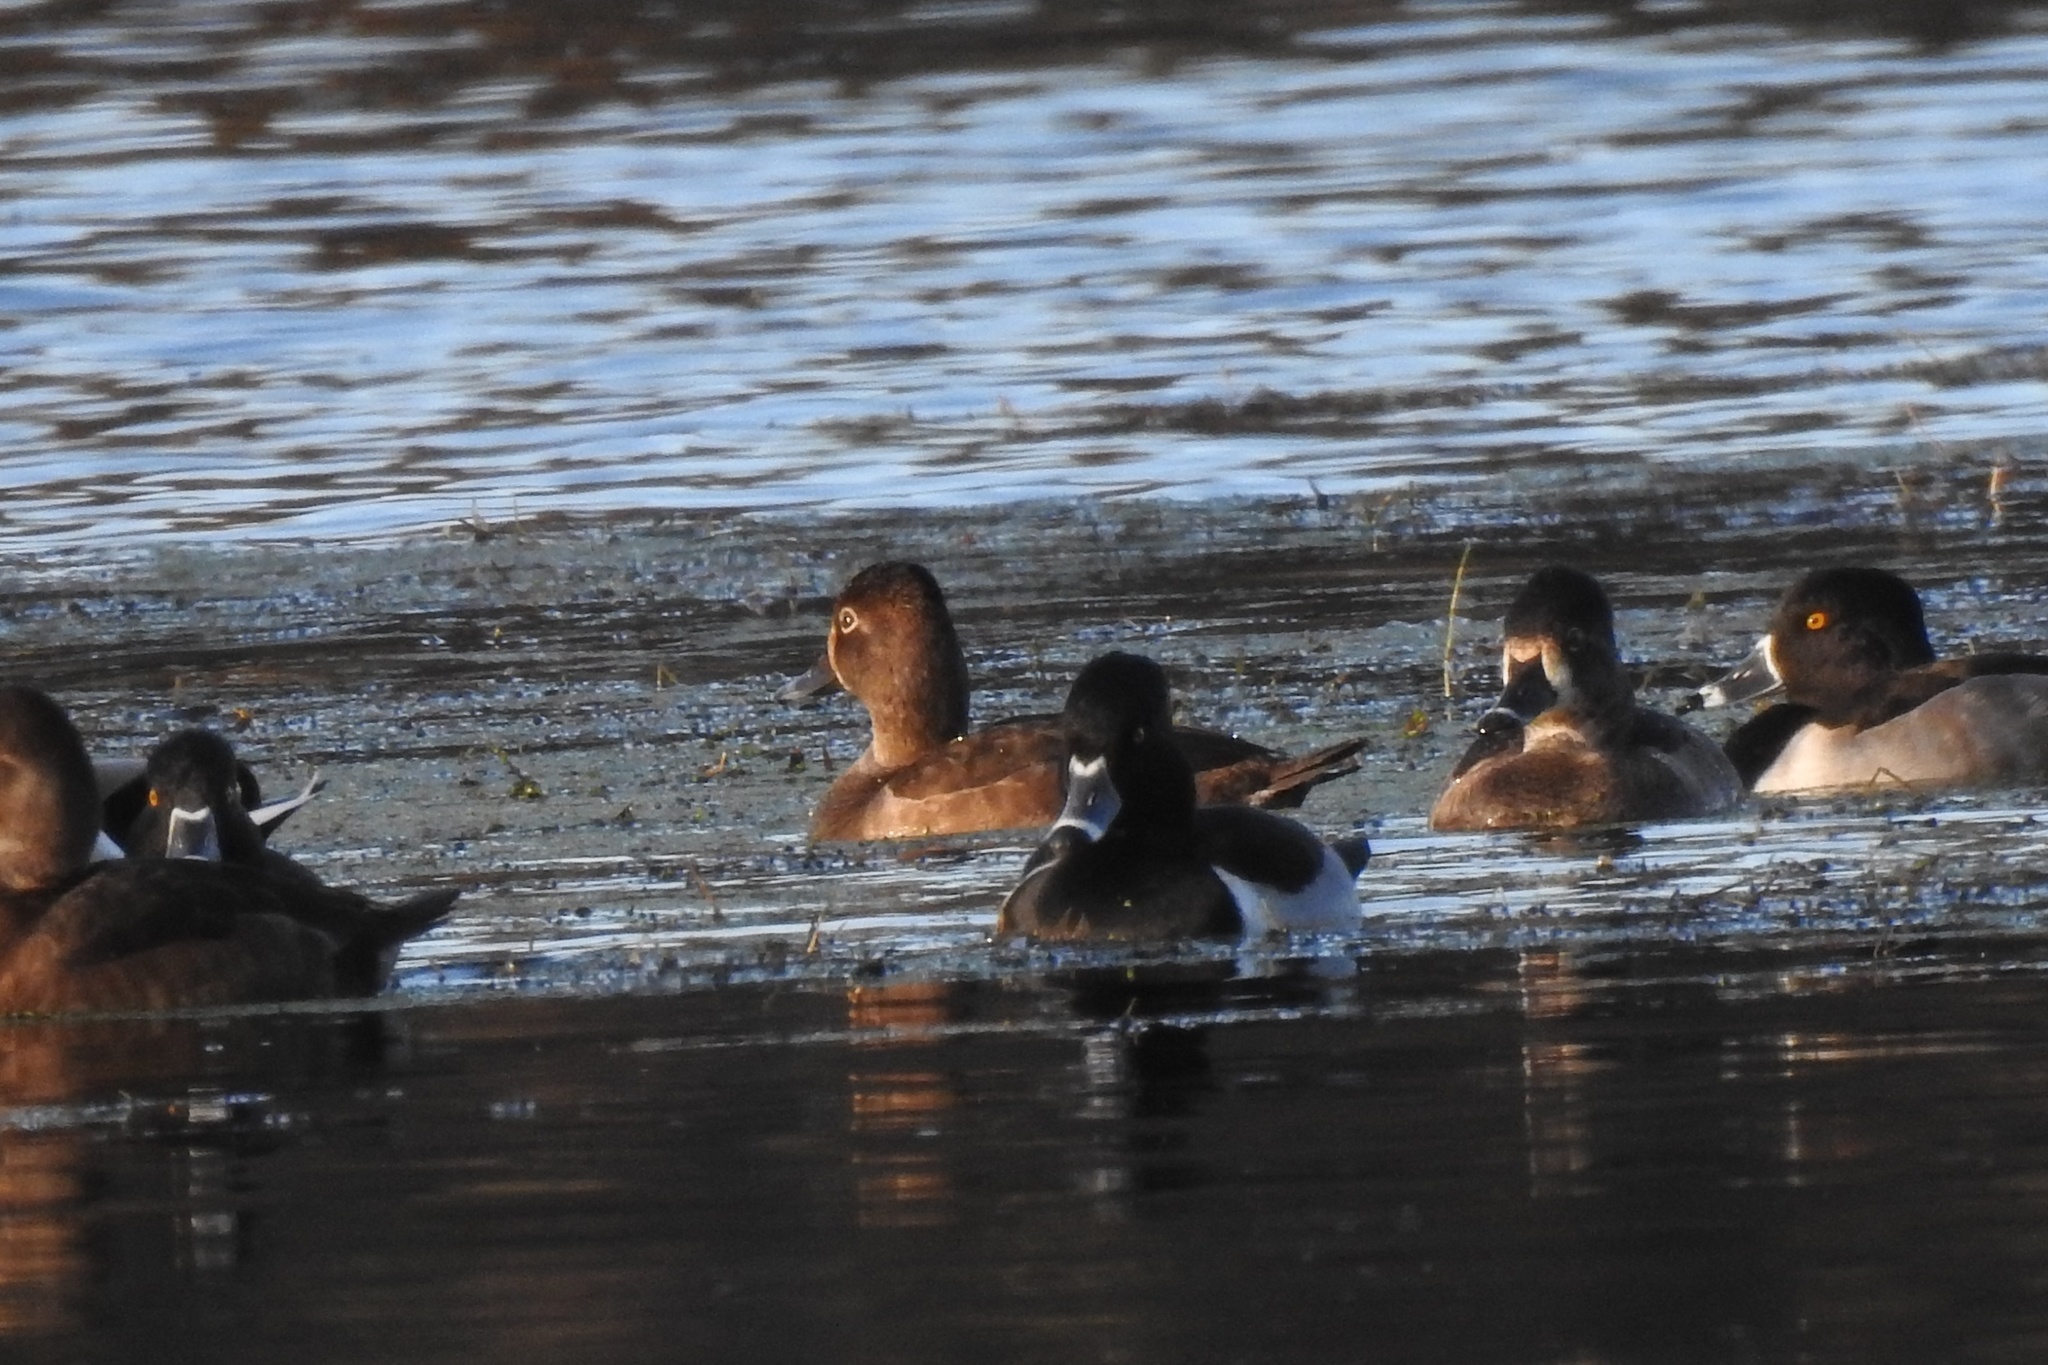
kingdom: Animalia
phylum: Chordata
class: Aves
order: Anseriformes
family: Anatidae
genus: Aythya
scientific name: Aythya collaris
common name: Ring-necked duck
